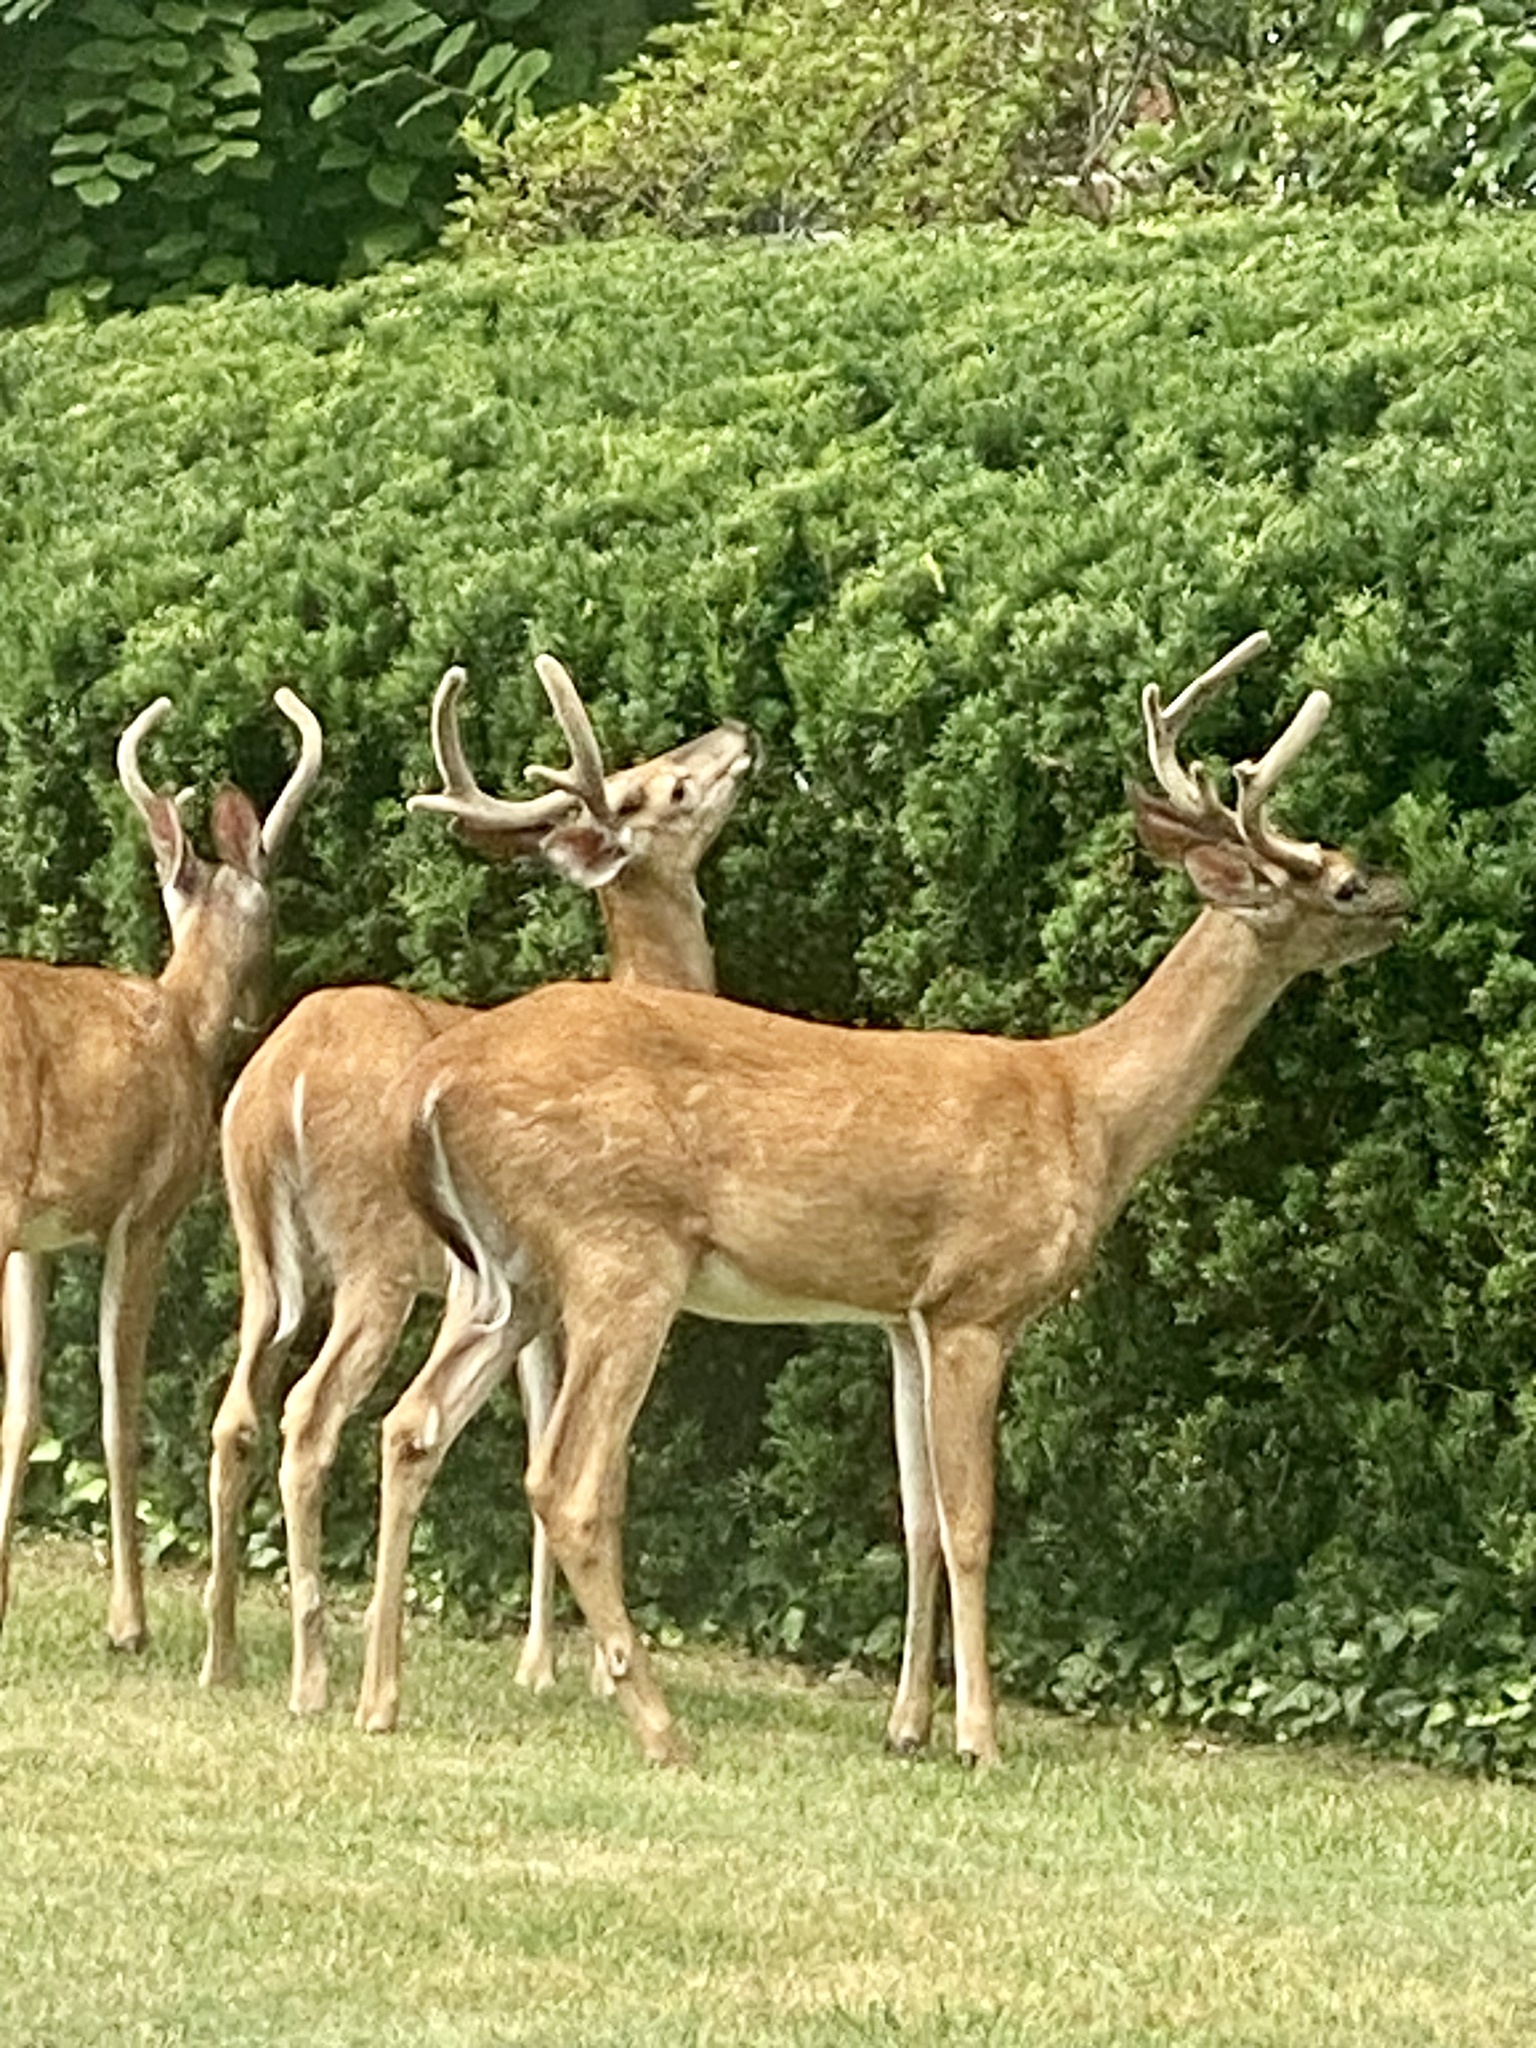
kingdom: Animalia
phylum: Chordata
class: Mammalia
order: Artiodactyla
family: Cervidae
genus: Odocoileus
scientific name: Odocoileus virginianus
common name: White-tailed deer
